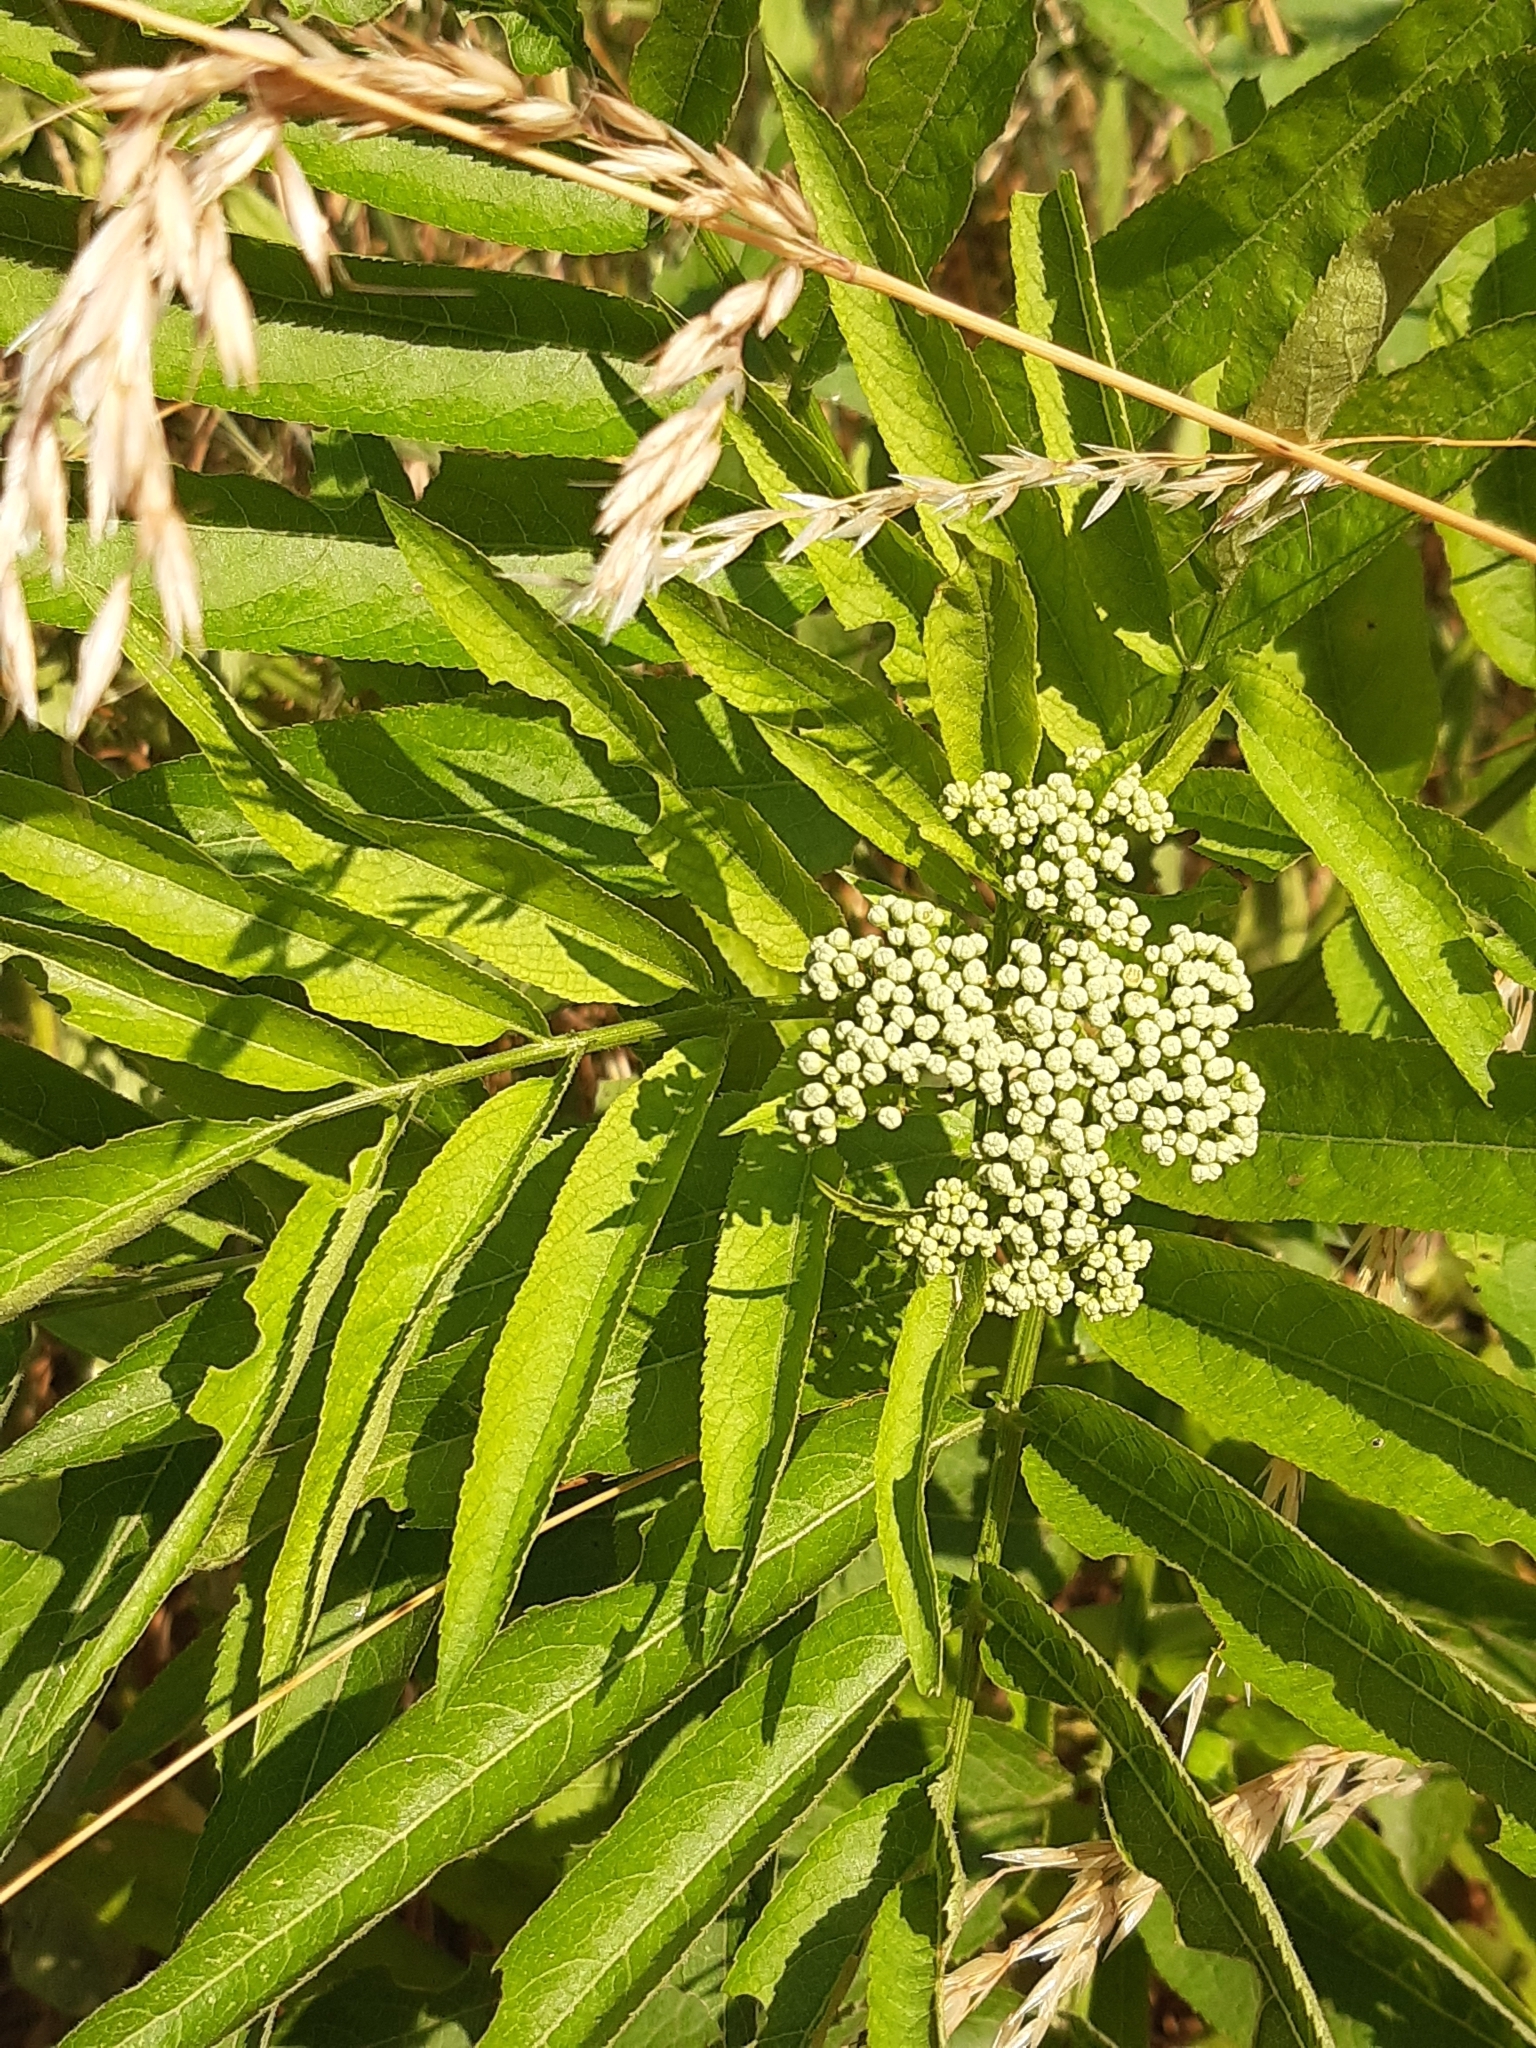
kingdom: Plantae
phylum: Tracheophyta
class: Magnoliopsida
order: Dipsacales
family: Viburnaceae
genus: Sambucus
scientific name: Sambucus ebulus
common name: Dwarf elder
